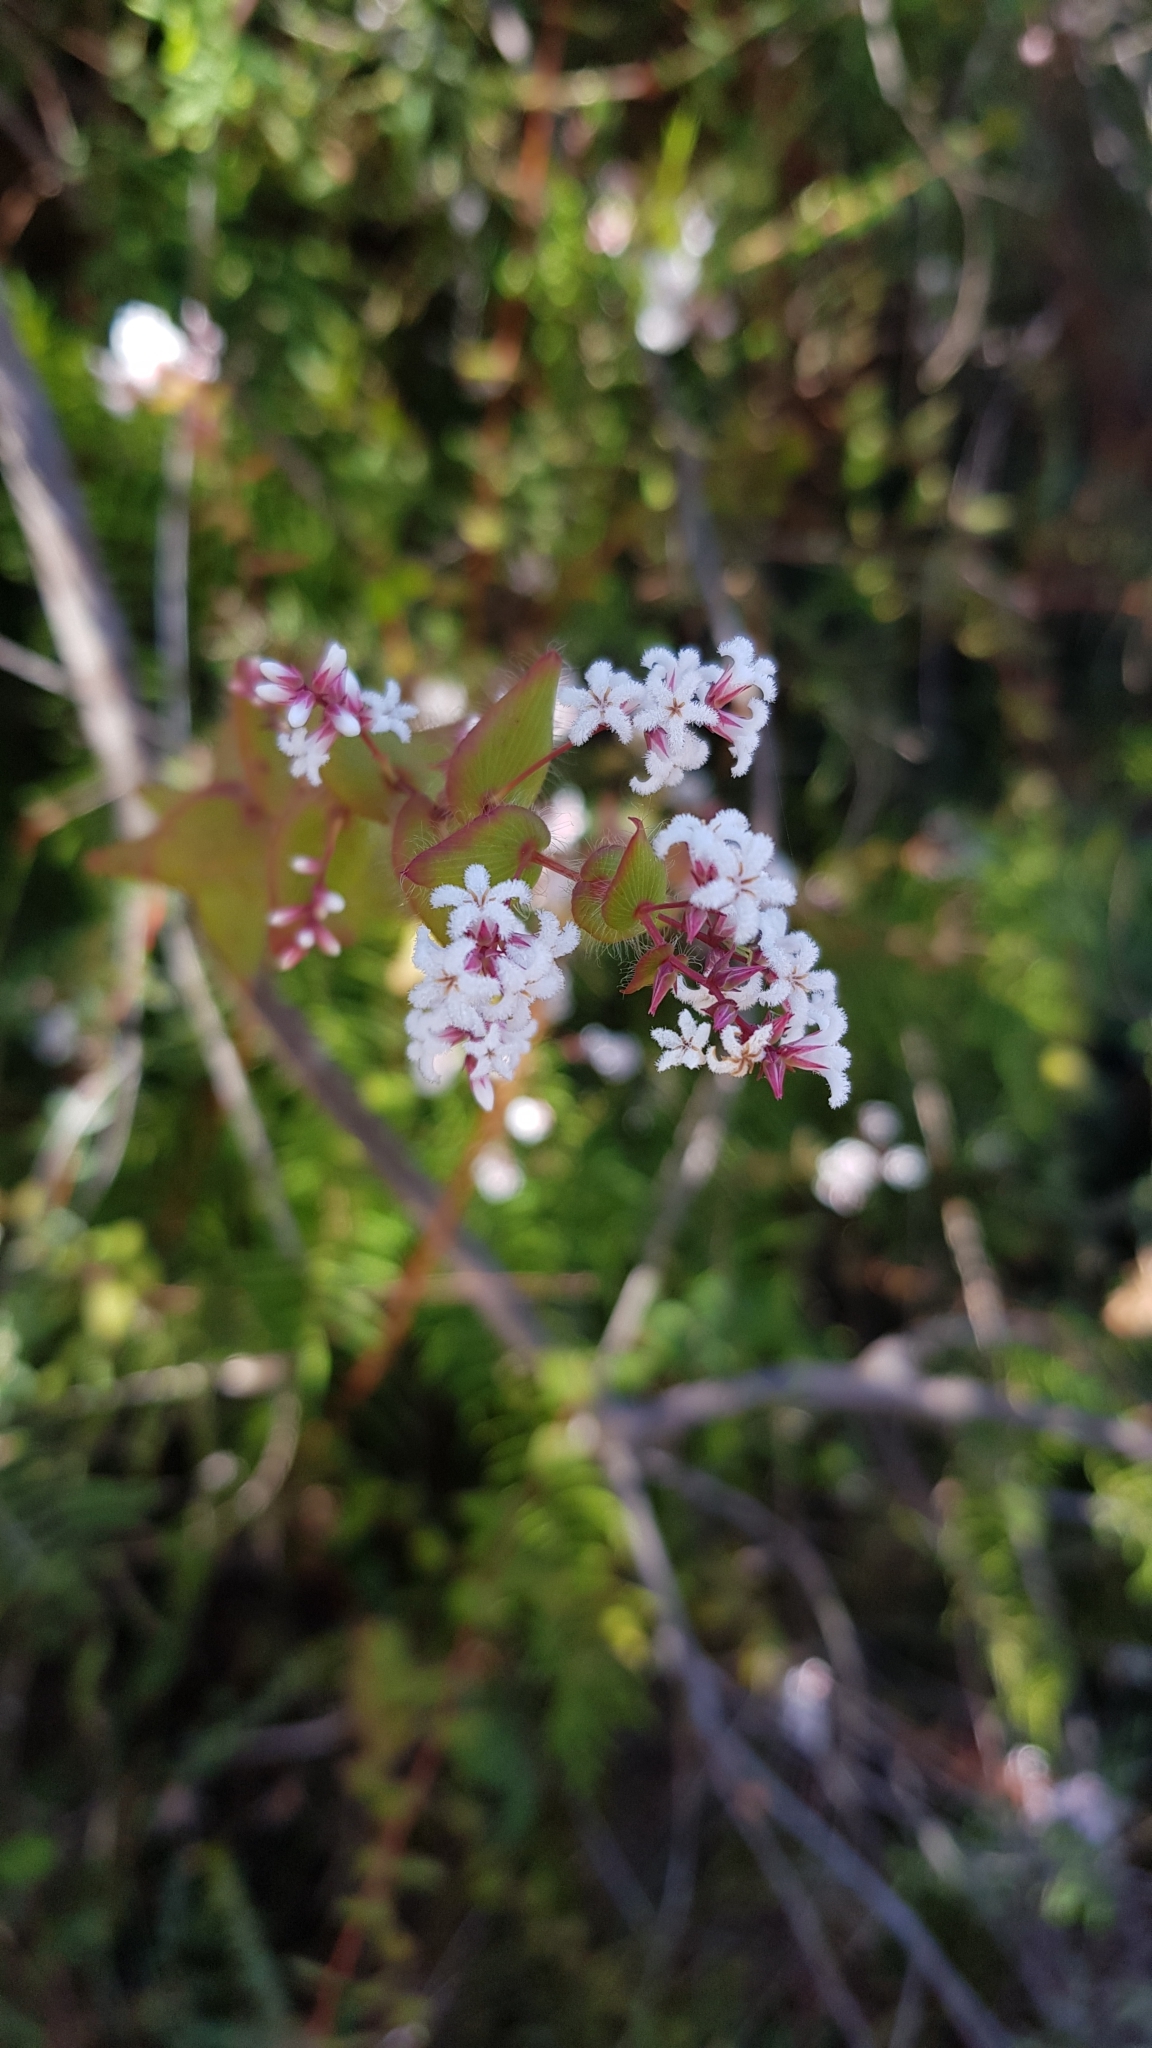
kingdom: Plantae
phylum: Tracheophyta
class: Magnoliopsida
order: Ericales
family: Ericaceae
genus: Leucopogon
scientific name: Leucopogon amplexicaulis
